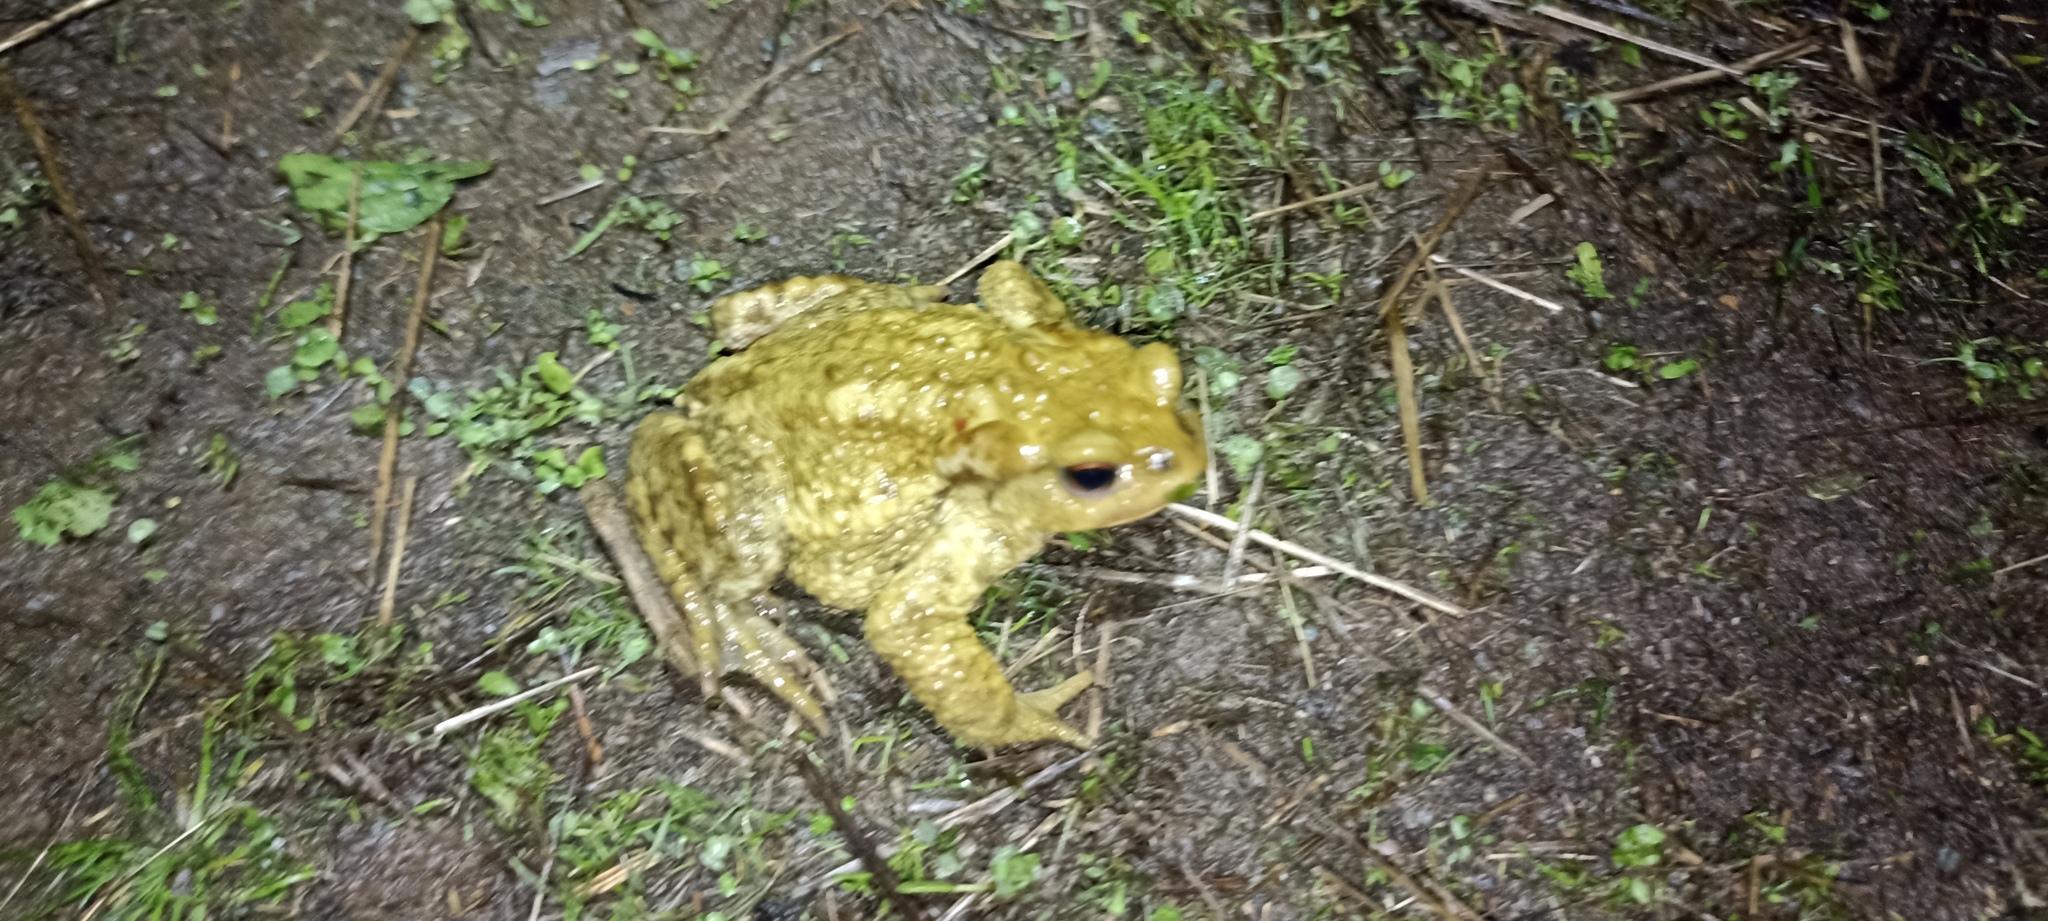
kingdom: Animalia
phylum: Chordata
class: Amphibia
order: Anura
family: Bufonidae
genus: Bufo
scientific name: Bufo spinosus
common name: Western common toad
